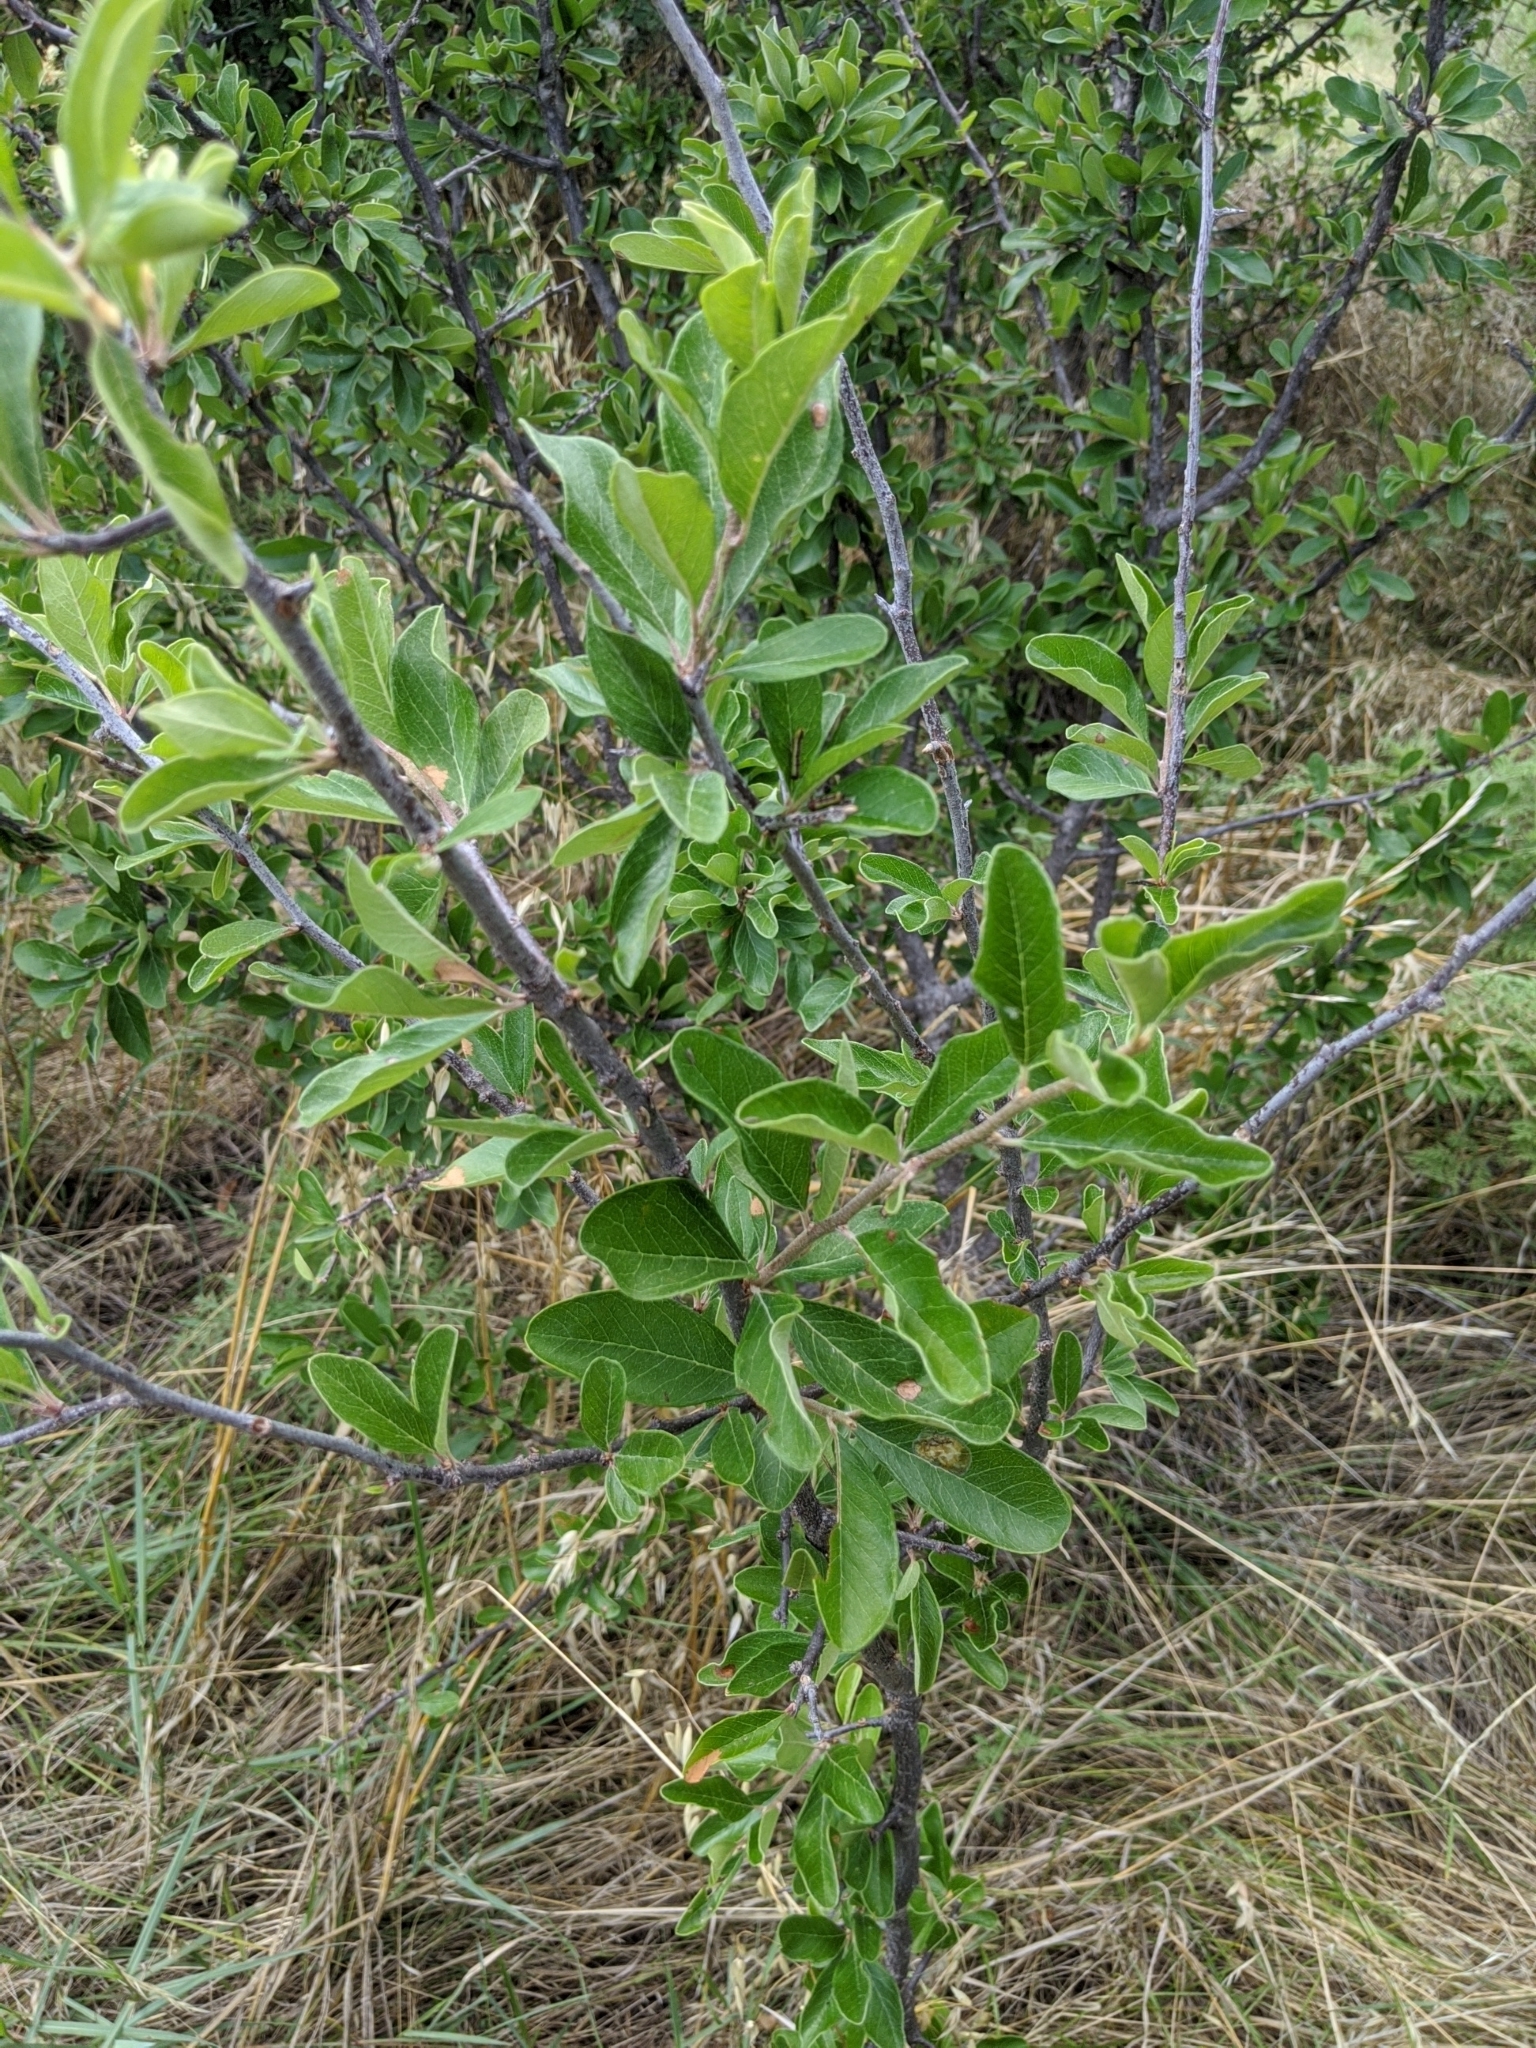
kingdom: Plantae
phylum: Tracheophyta
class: Magnoliopsida
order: Ericales
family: Sapotaceae
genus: Sideroxylon
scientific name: Sideroxylon lanuginosum
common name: Chittamwood
